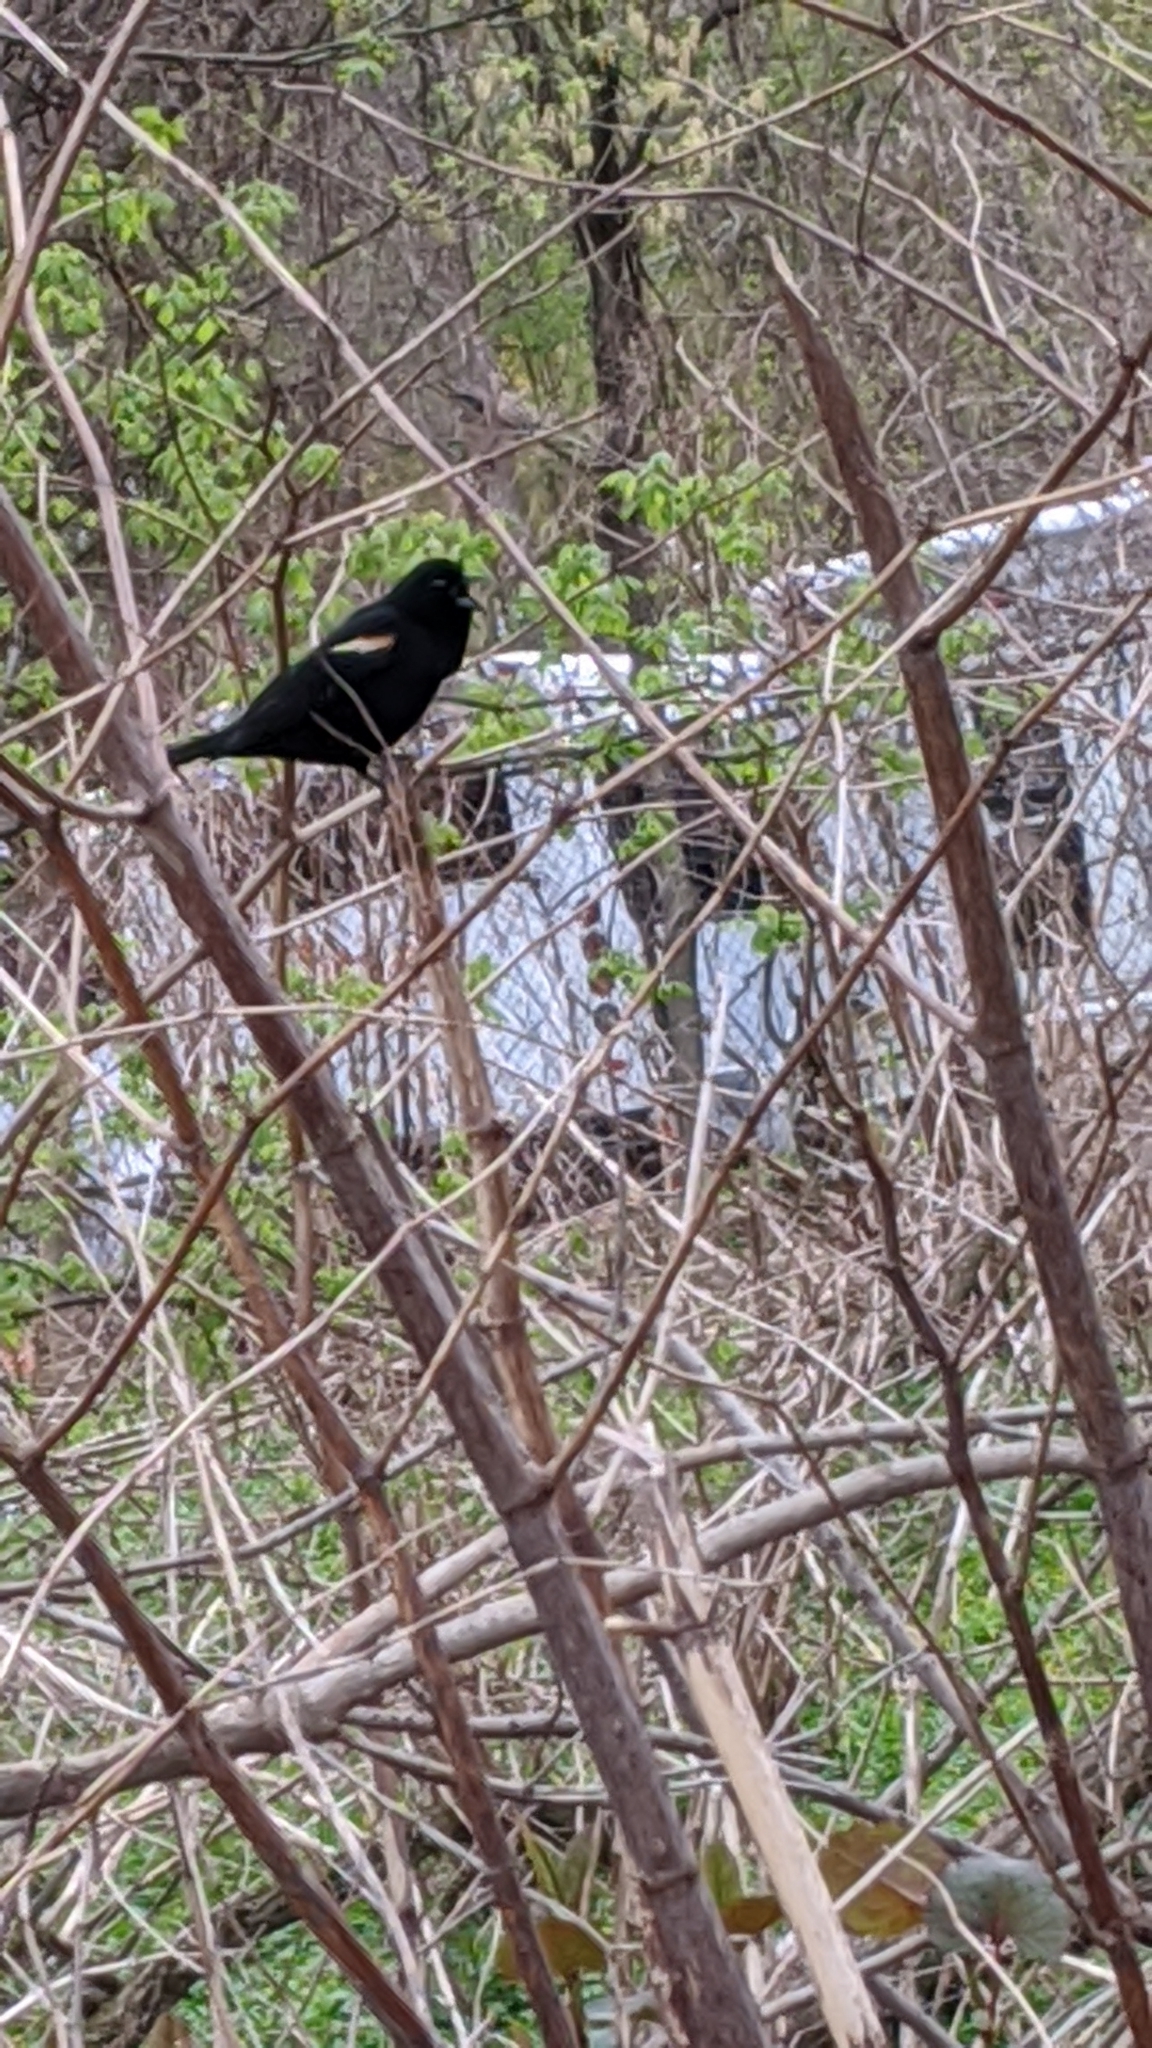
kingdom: Animalia
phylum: Chordata
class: Aves
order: Passeriformes
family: Icteridae
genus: Agelaius
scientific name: Agelaius phoeniceus
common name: Red-winged blackbird
